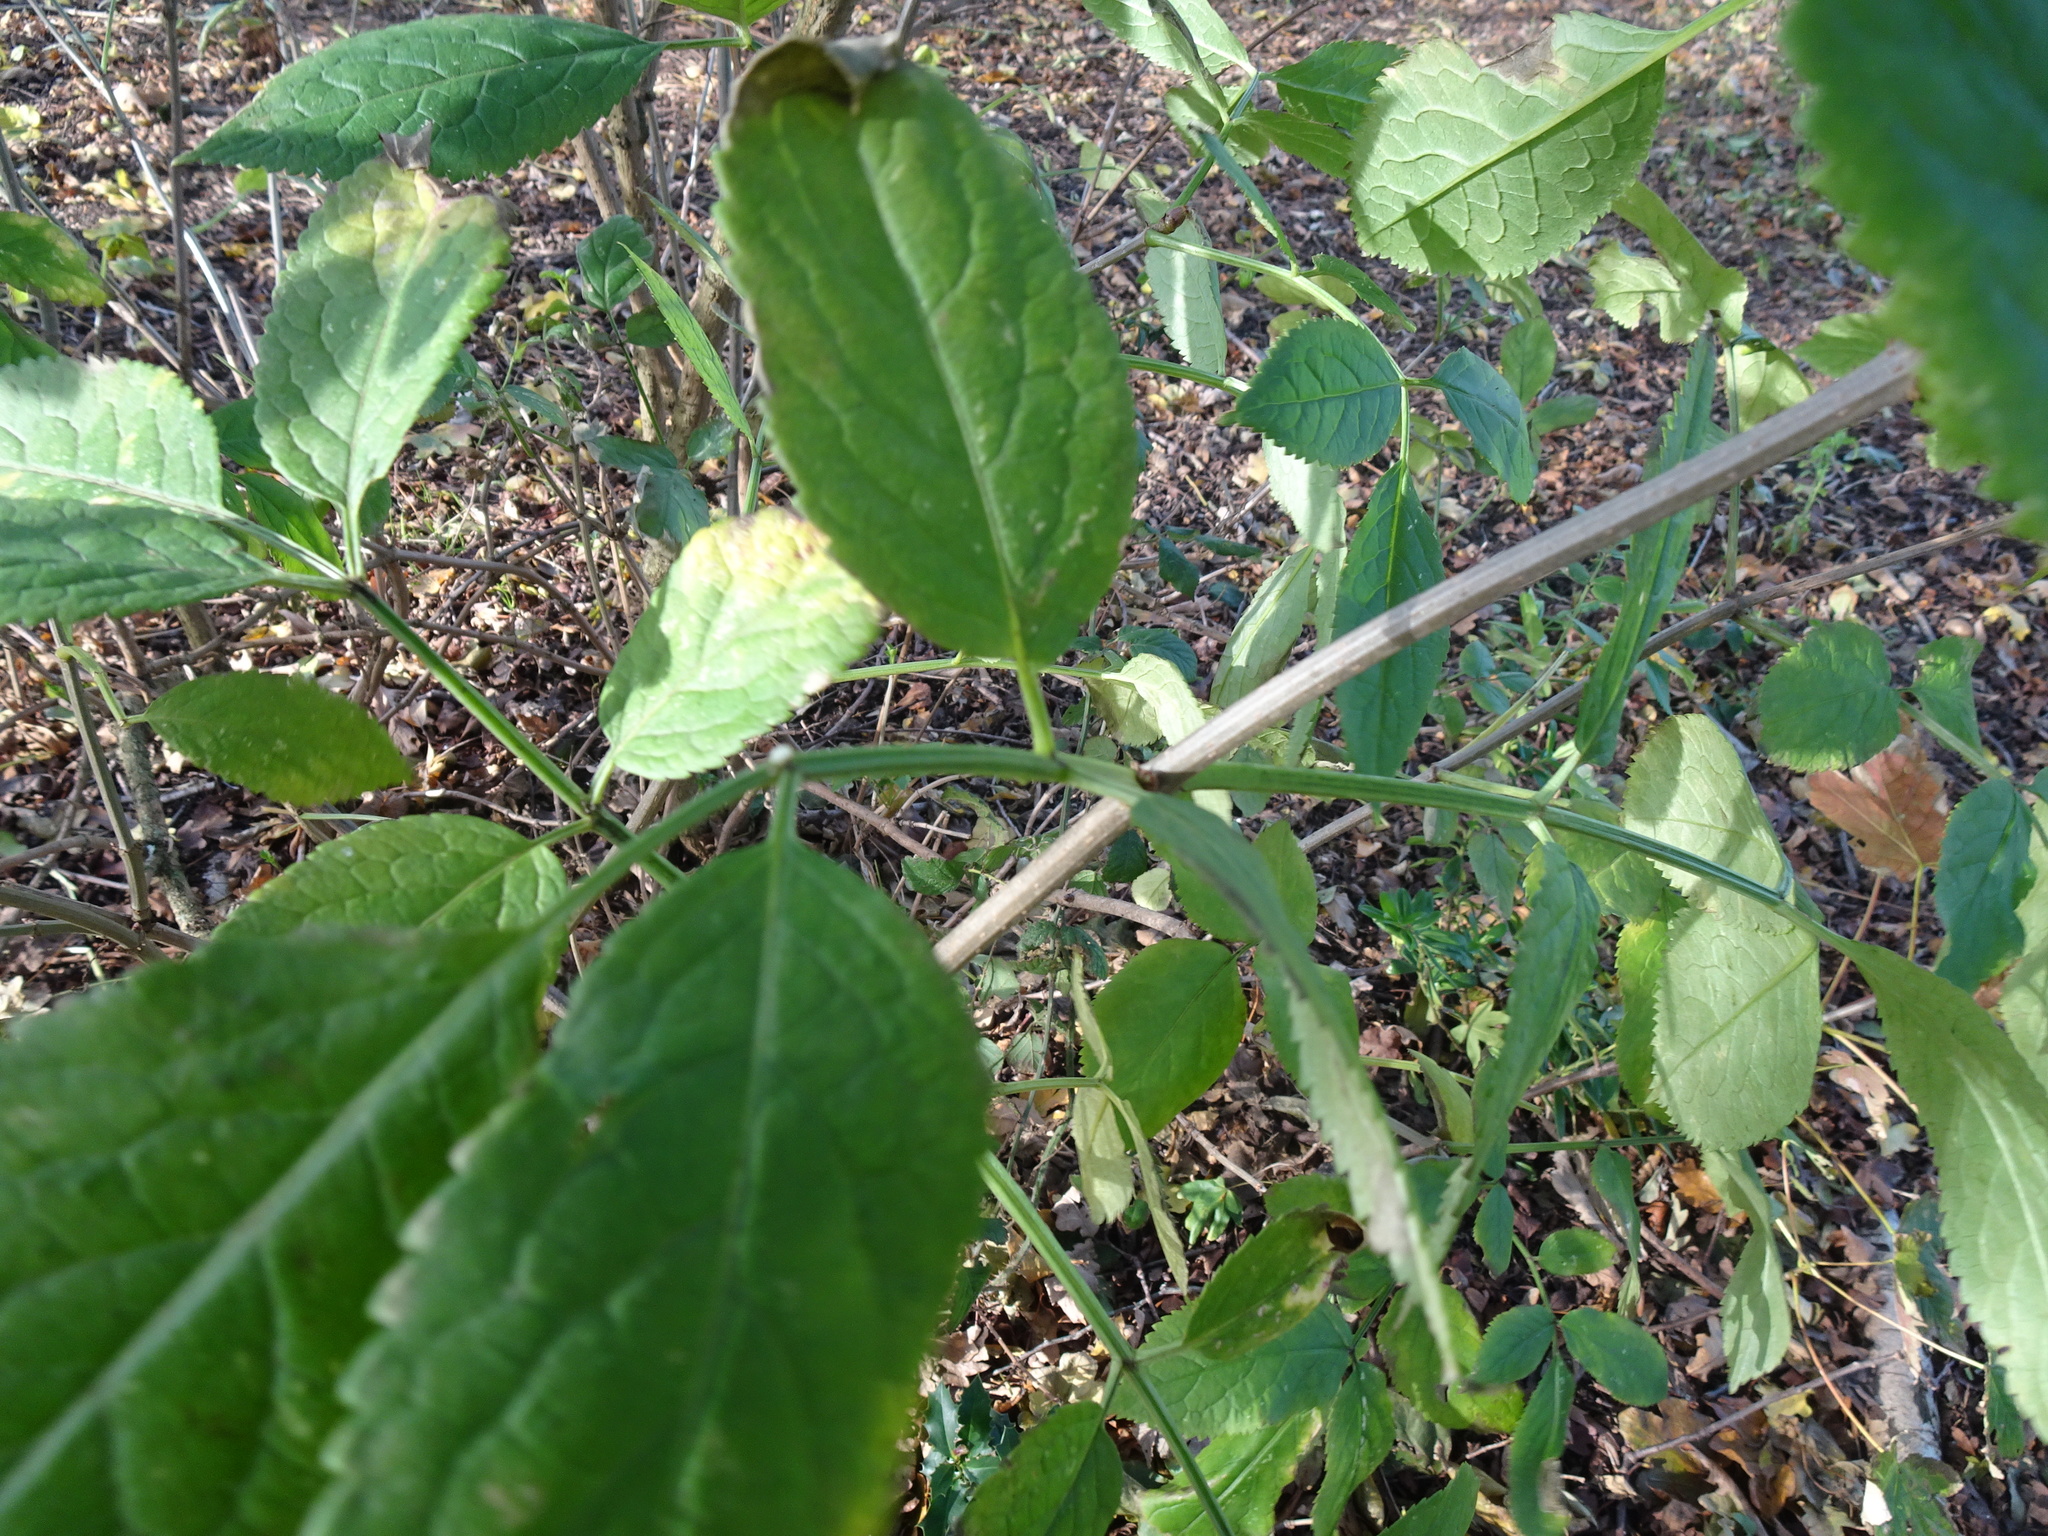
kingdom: Plantae
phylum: Tracheophyta
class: Magnoliopsida
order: Dipsacales
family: Viburnaceae
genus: Sambucus
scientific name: Sambucus nigra
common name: Elder
